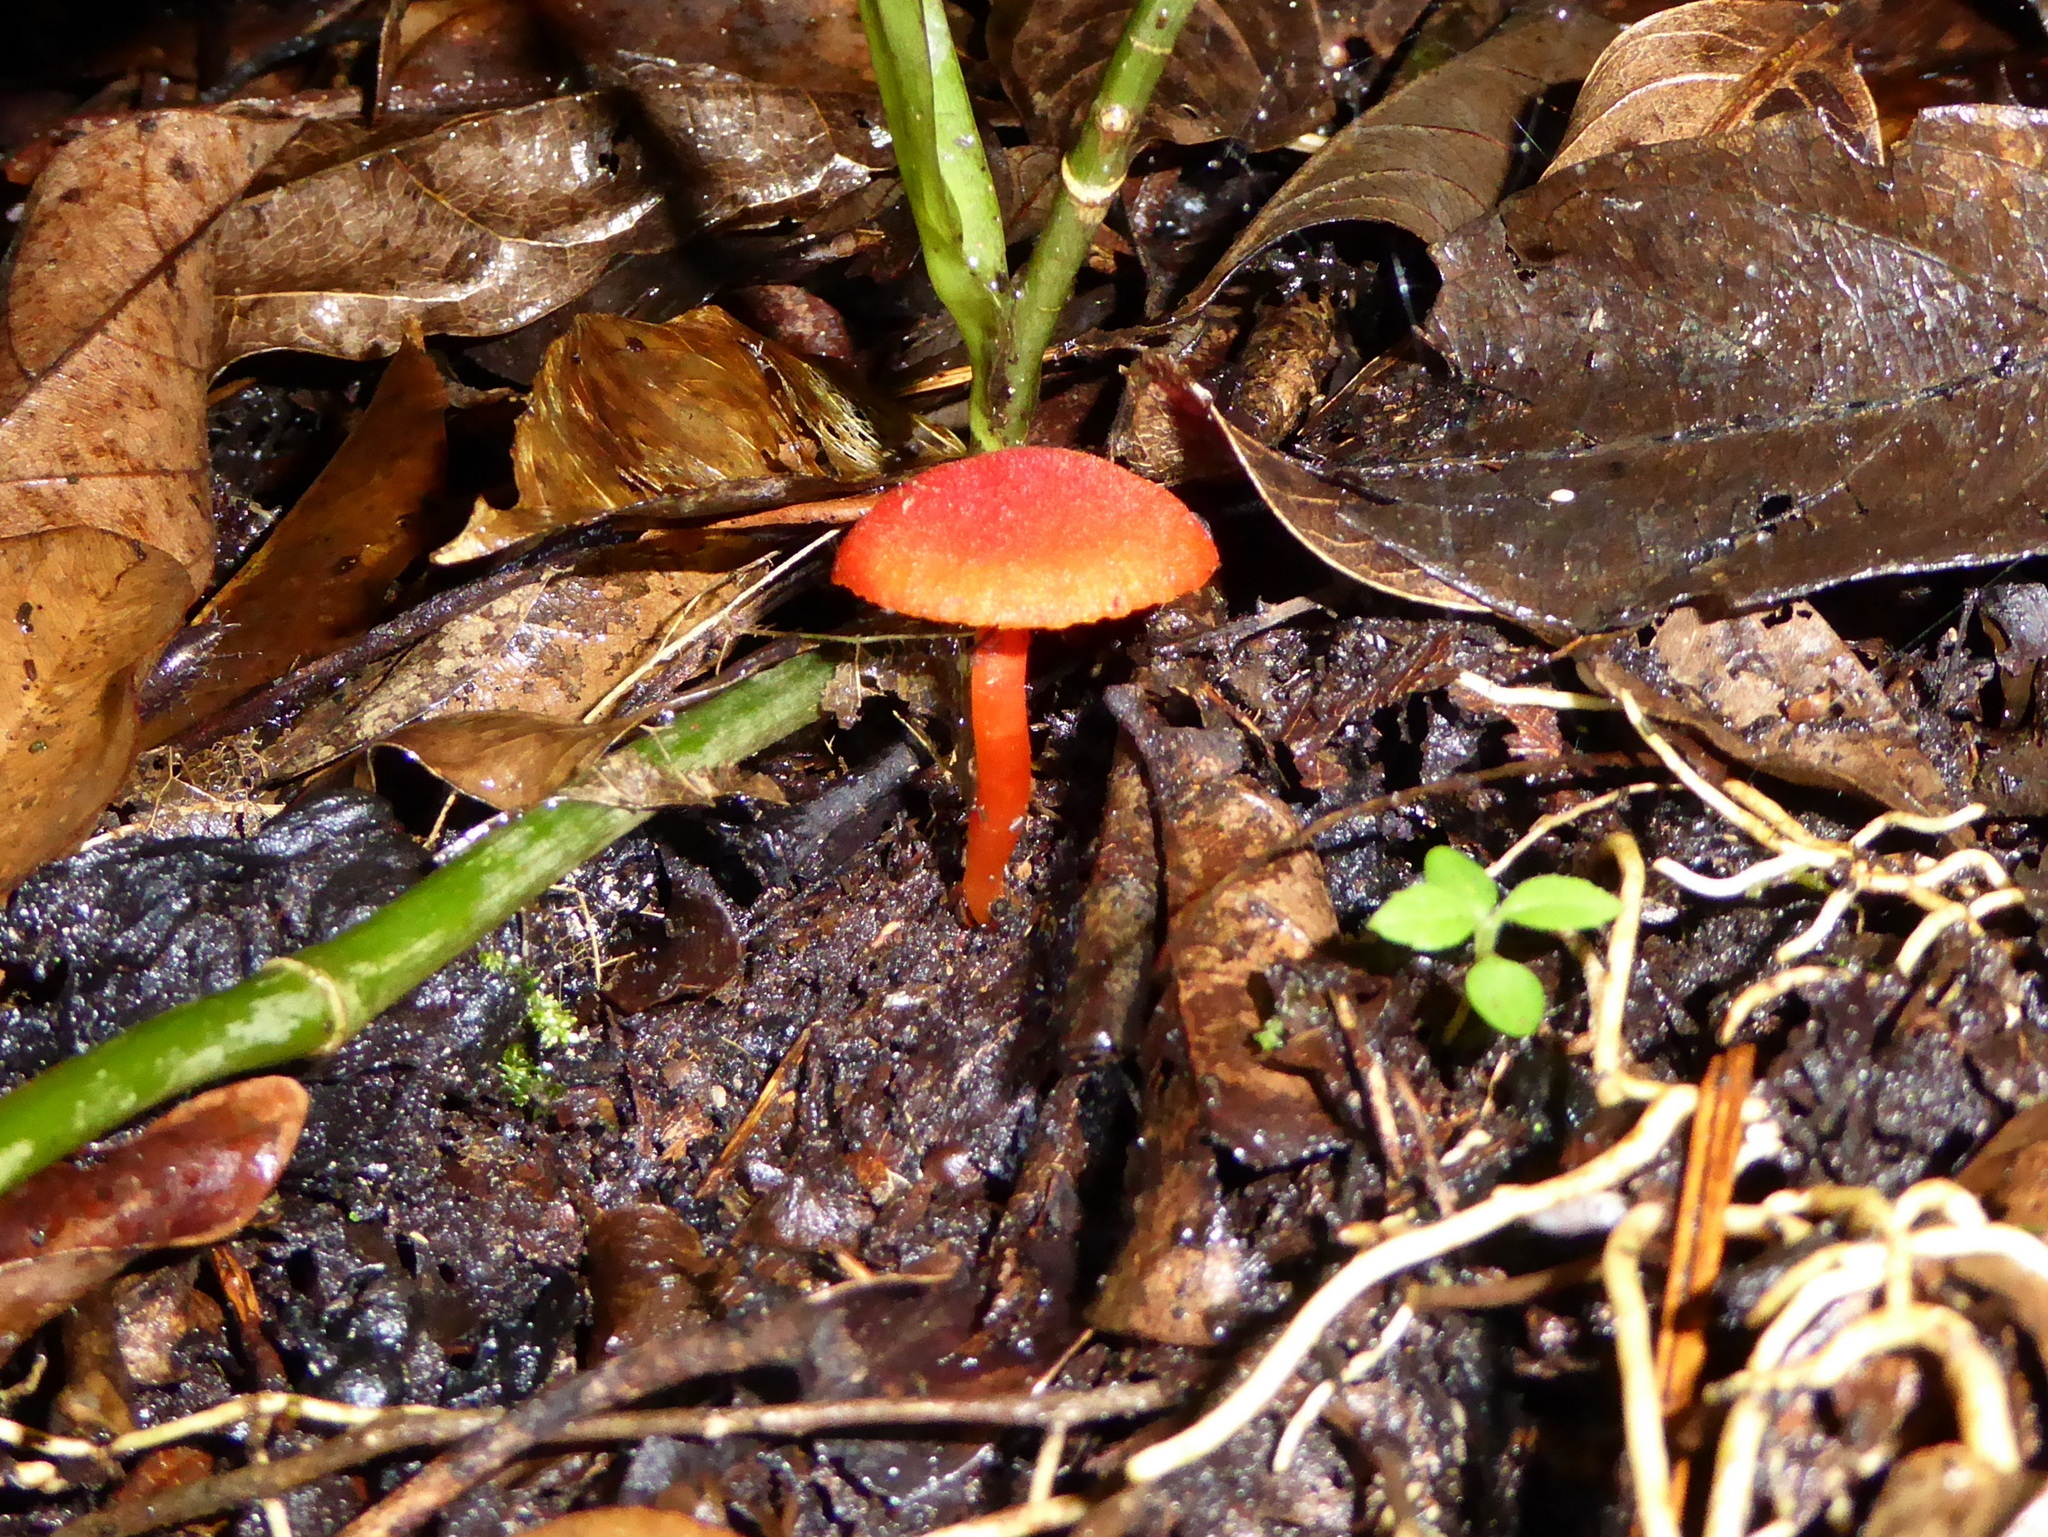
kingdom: Fungi
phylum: Basidiomycota
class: Agaricomycetes
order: Agaricales
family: Hygrophoraceae
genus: Hygrocybe
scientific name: Hygrocybe miniata
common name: Vermilion waxcap
